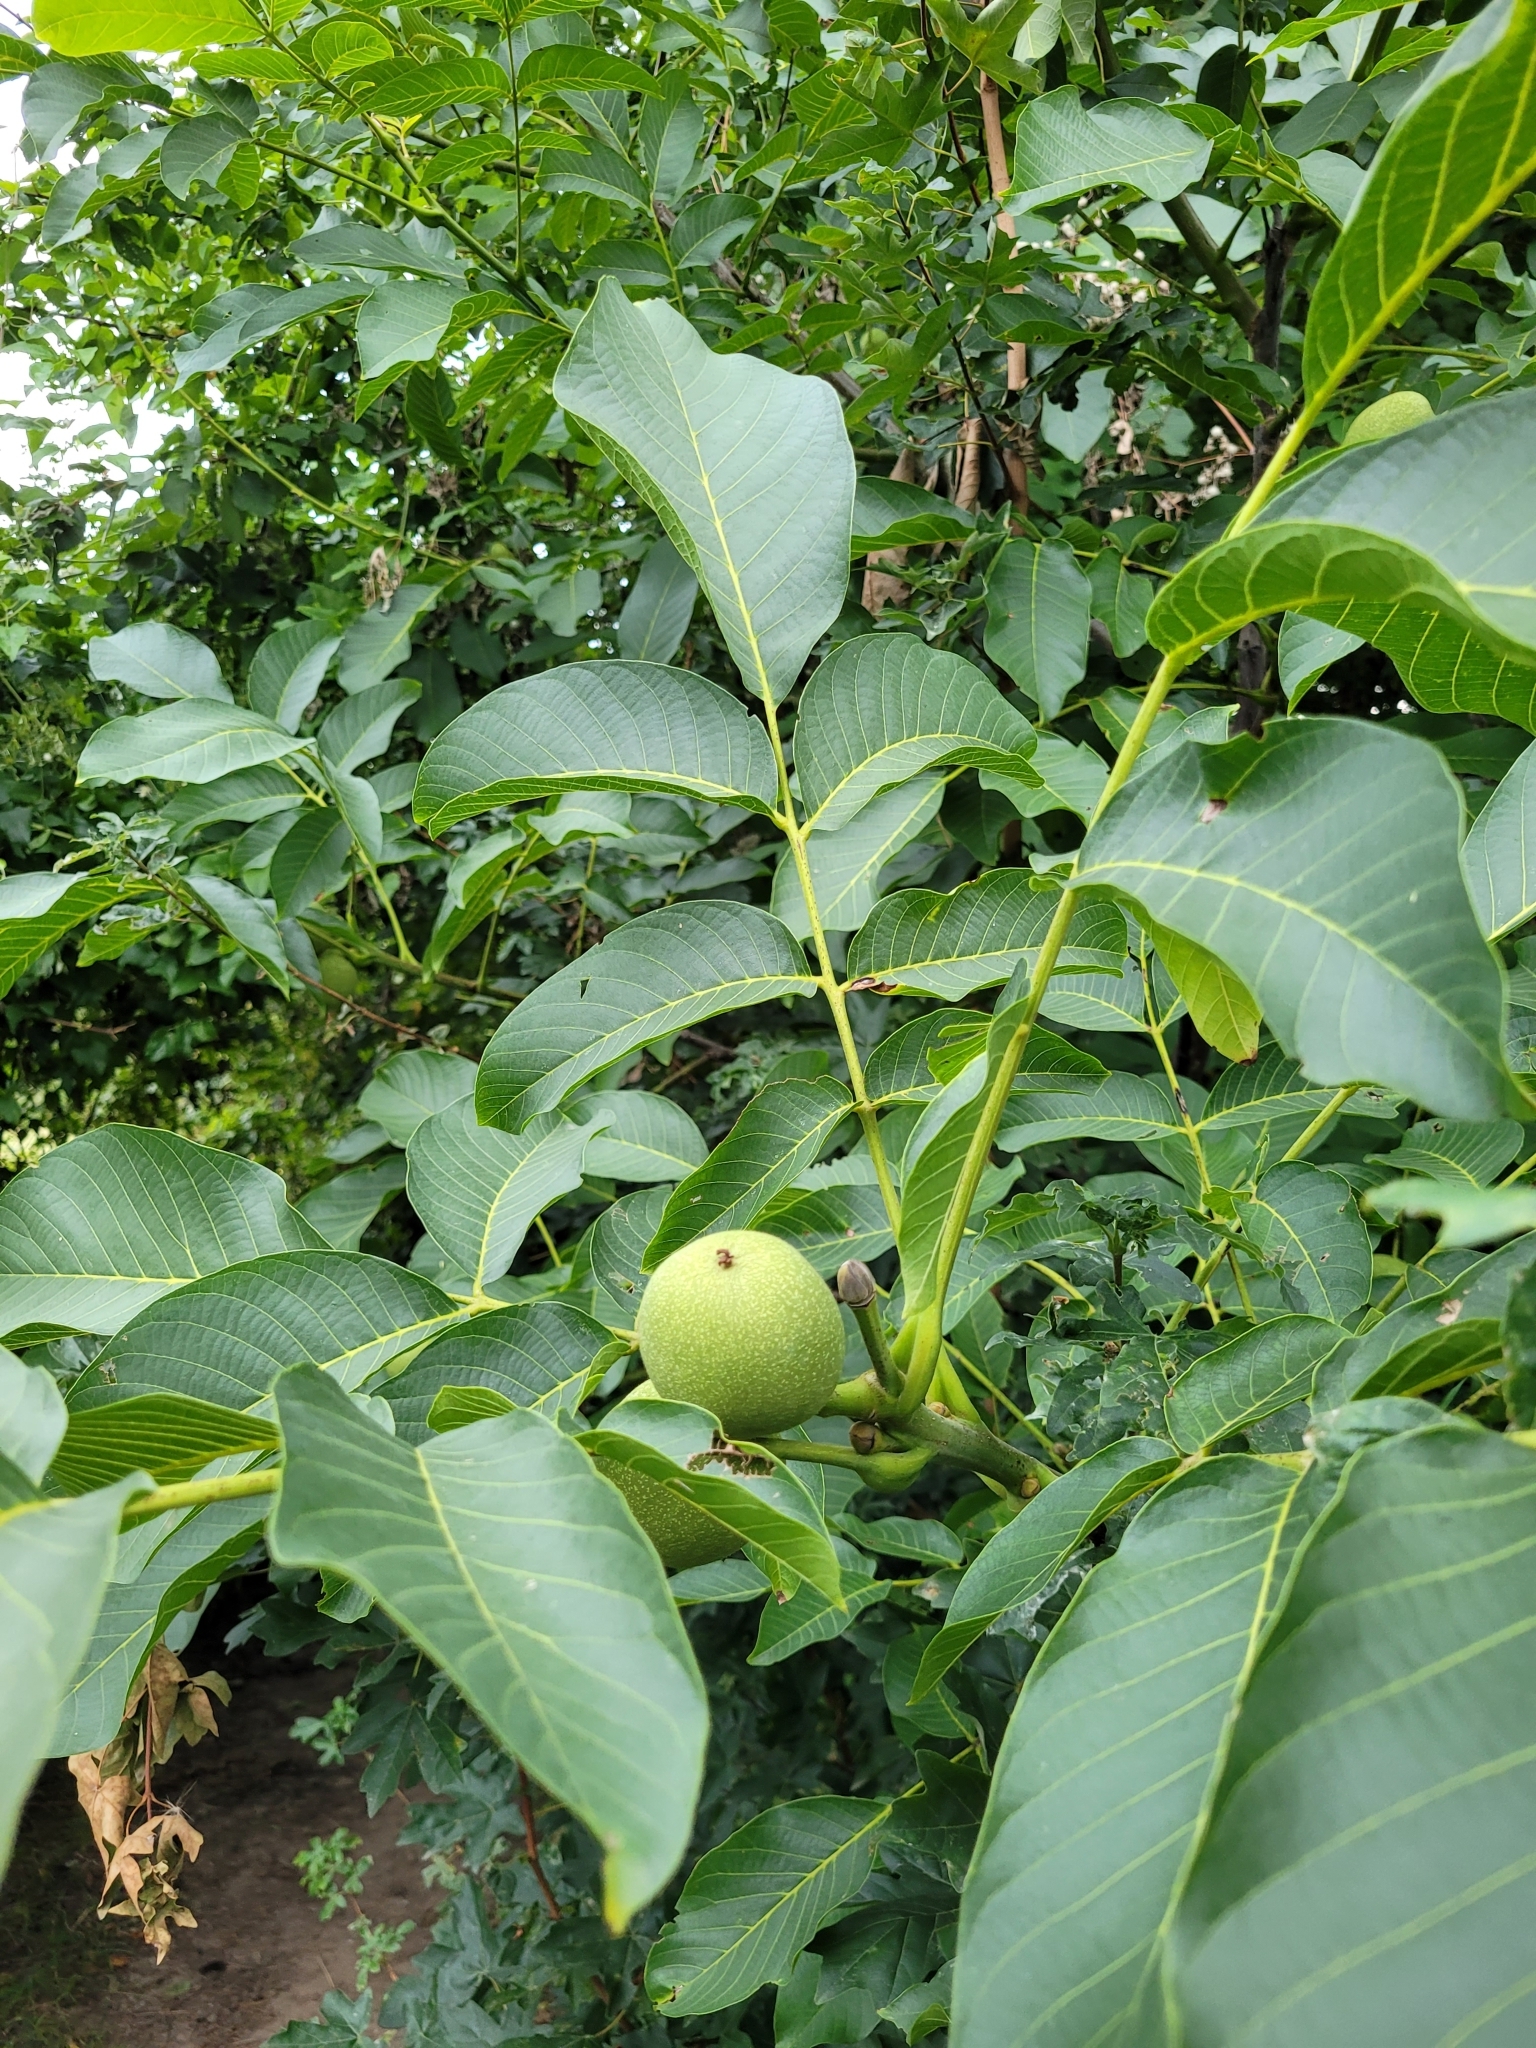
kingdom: Plantae
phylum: Tracheophyta
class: Magnoliopsida
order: Fagales
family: Juglandaceae
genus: Juglans
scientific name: Juglans regia
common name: Walnut
